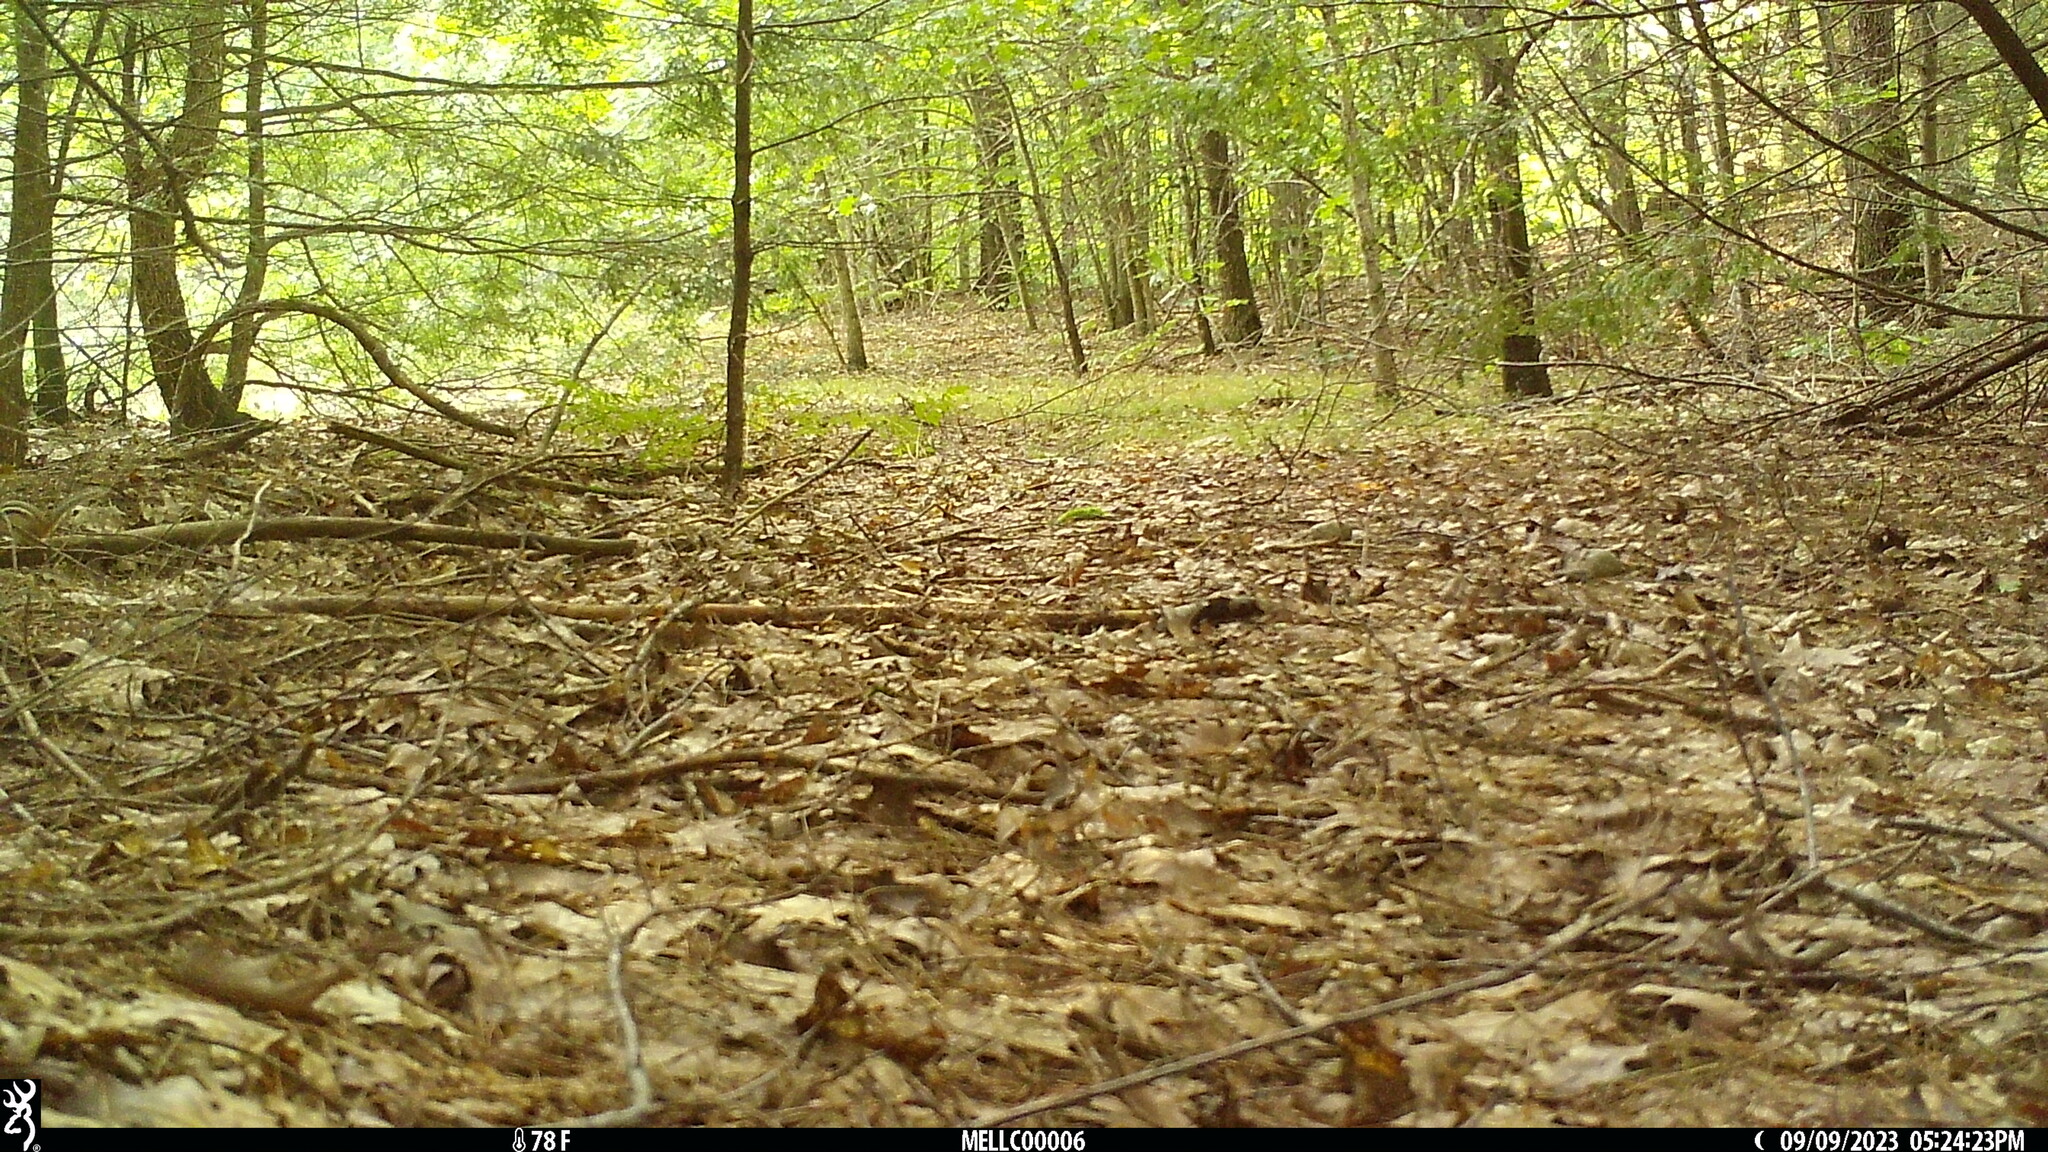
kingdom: Animalia
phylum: Chordata
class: Mammalia
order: Rodentia
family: Sciuridae
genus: Tamias
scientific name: Tamias striatus
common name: Eastern chipmunk
